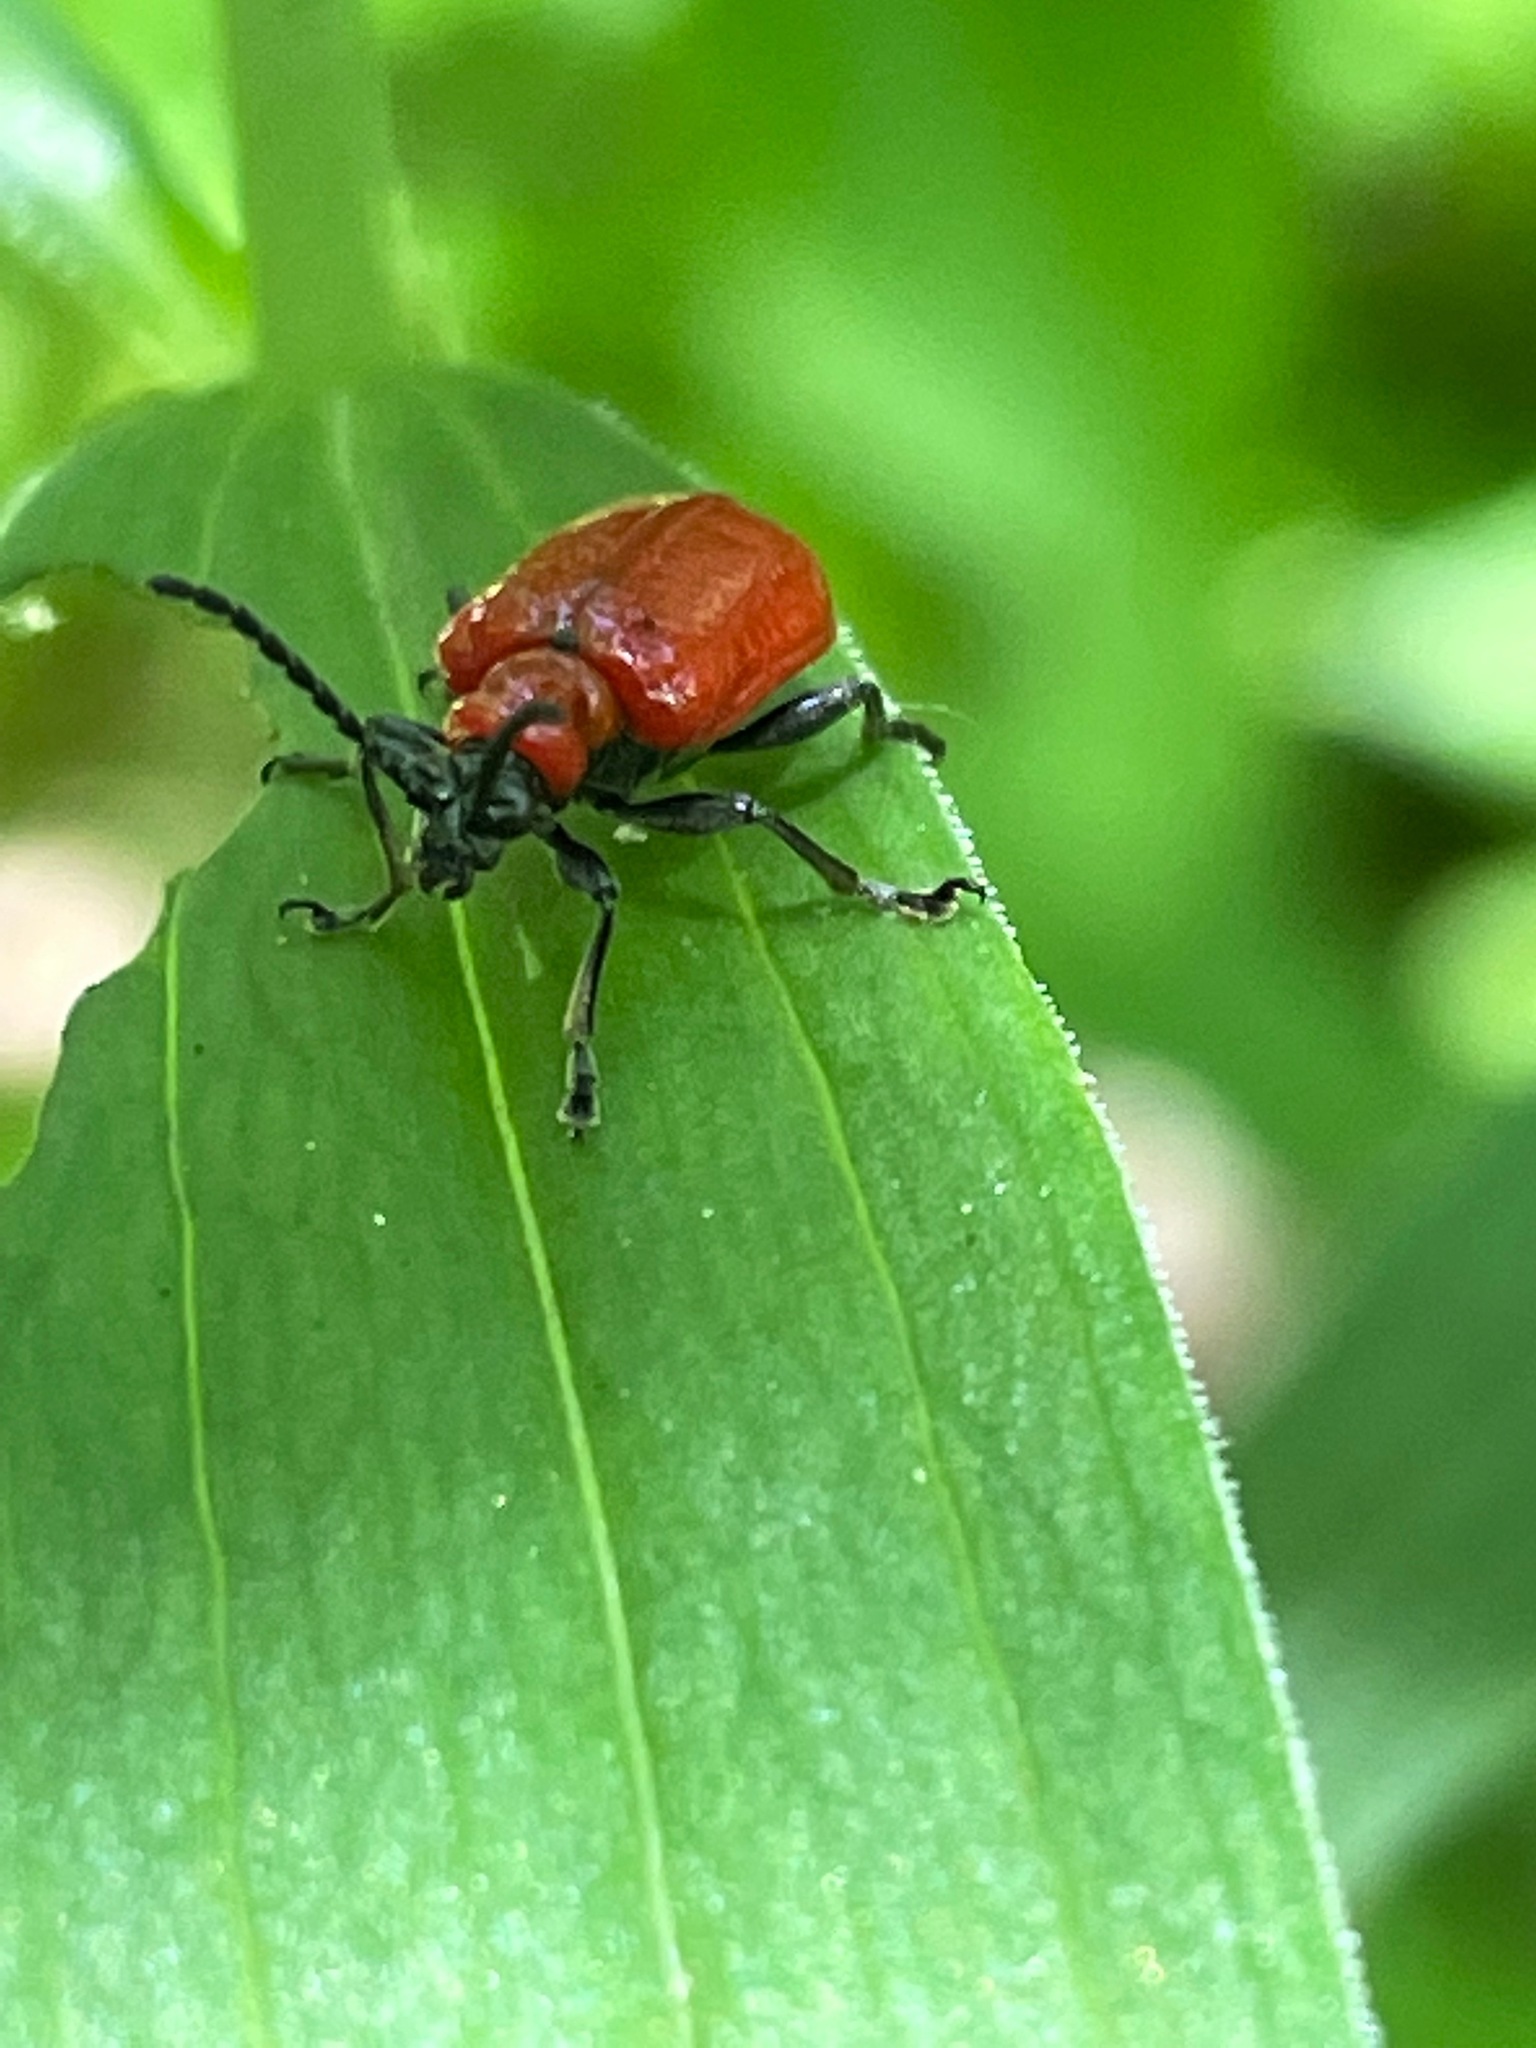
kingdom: Animalia
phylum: Arthropoda
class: Insecta
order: Coleoptera
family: Chrysomelidae
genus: Lilioceris
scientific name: Lilioceris lilii
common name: Lily beetle
